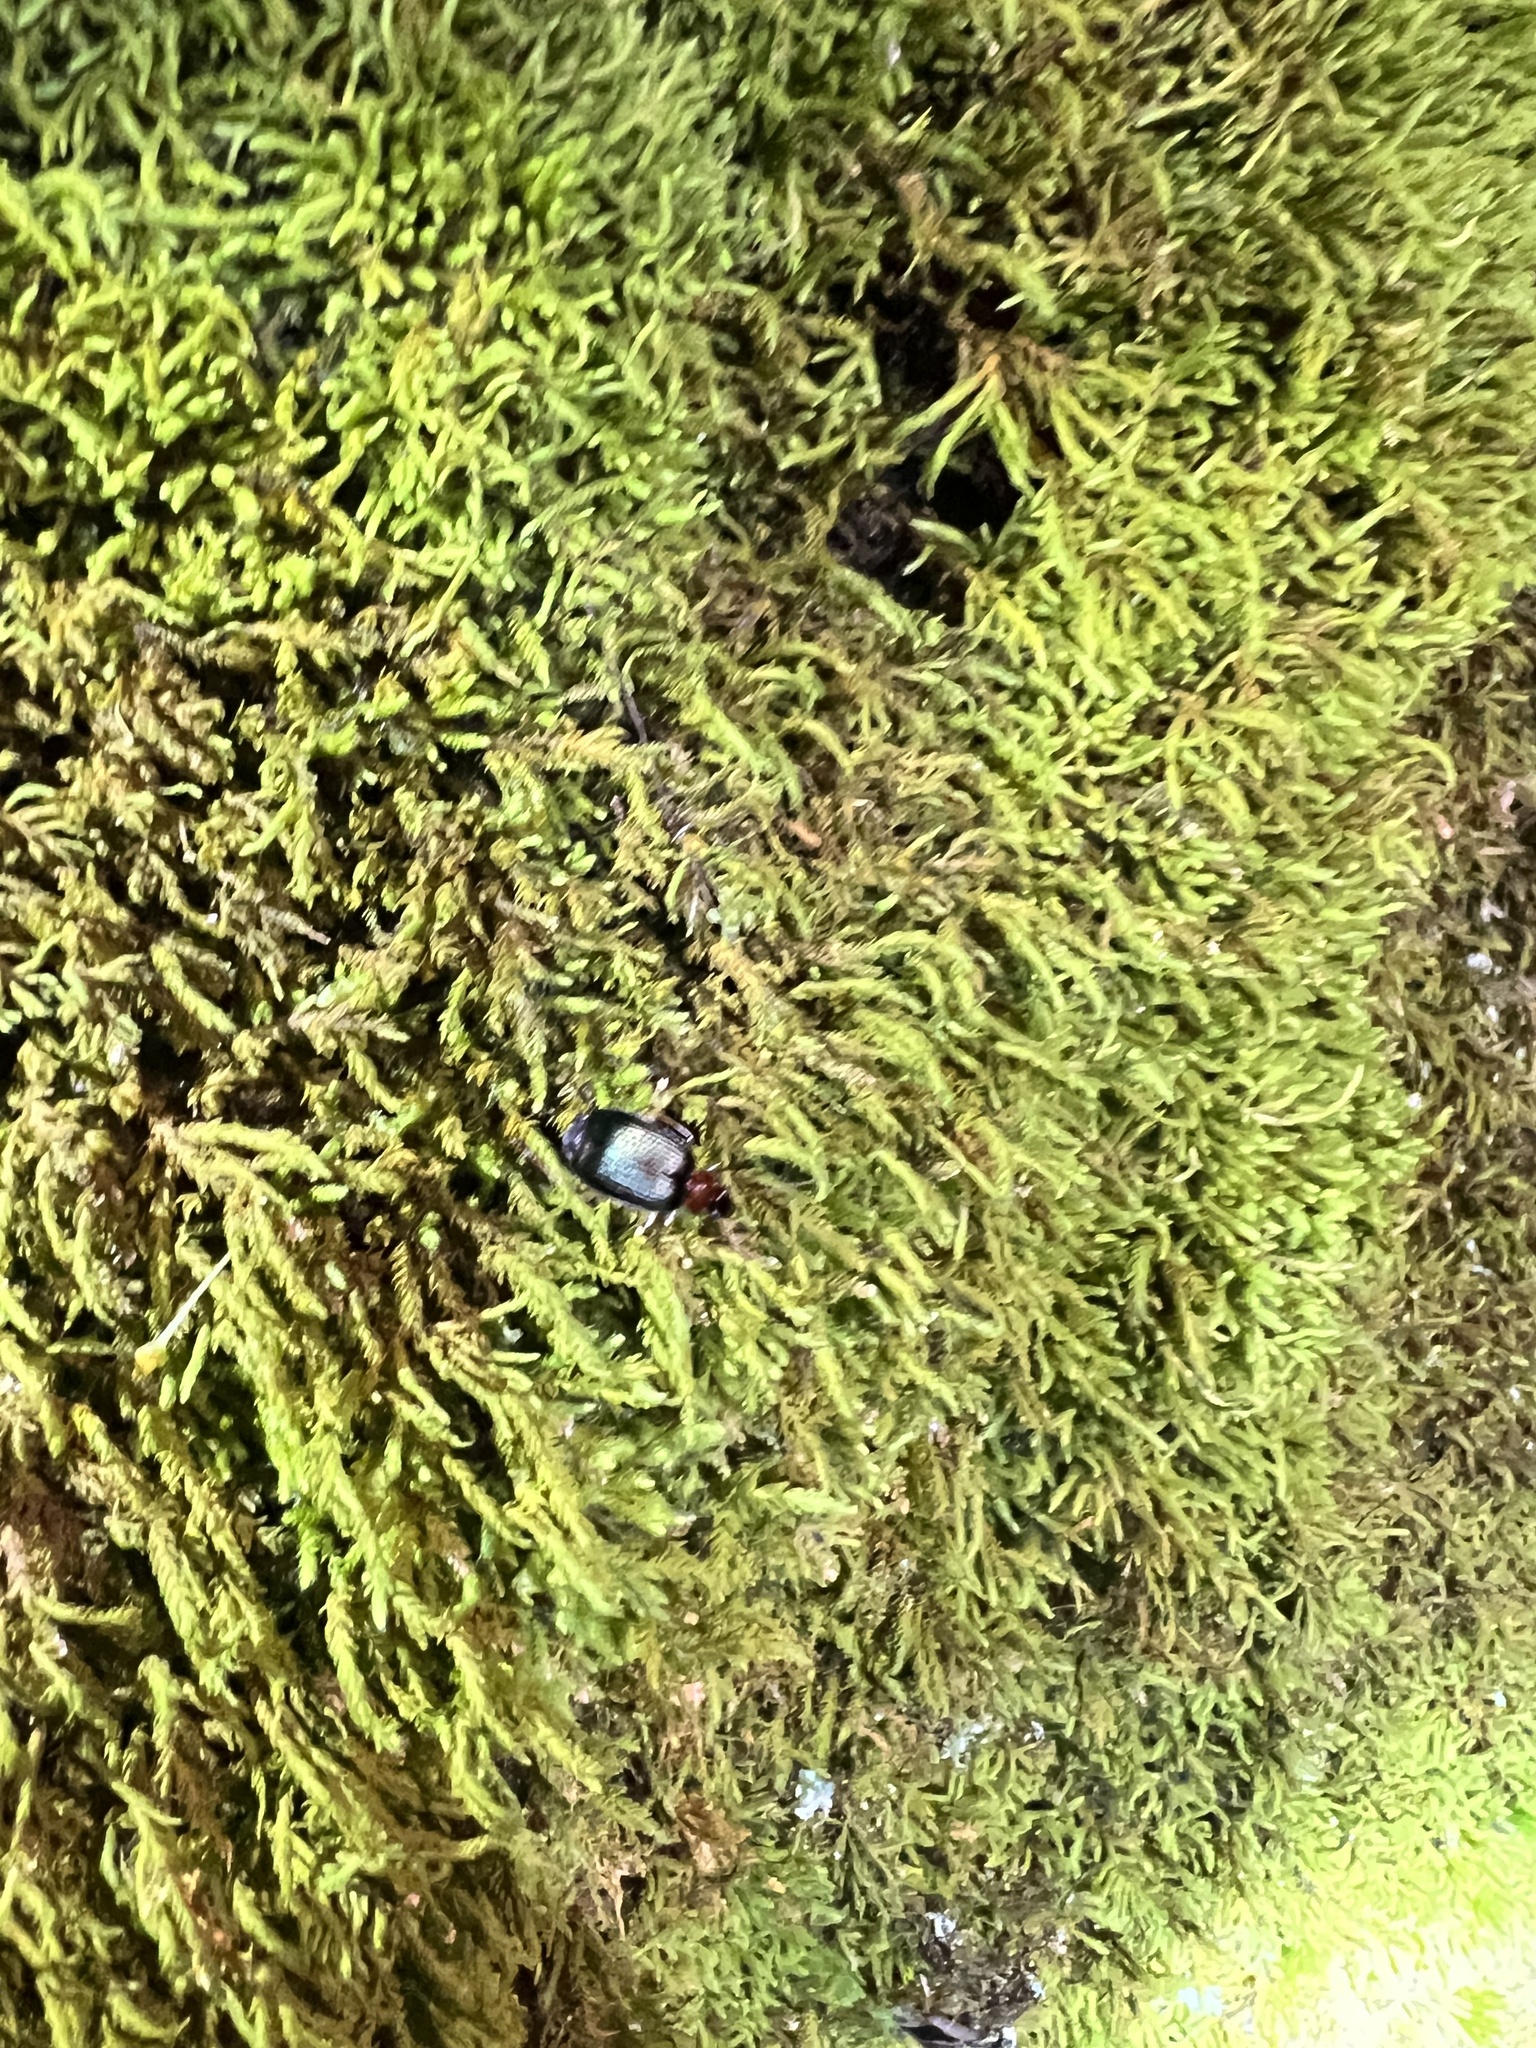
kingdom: Animalia
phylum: Arthropoda
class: Insecta
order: Coleoptera
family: Carabidae
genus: Lebia
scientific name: Lebia tricolor
